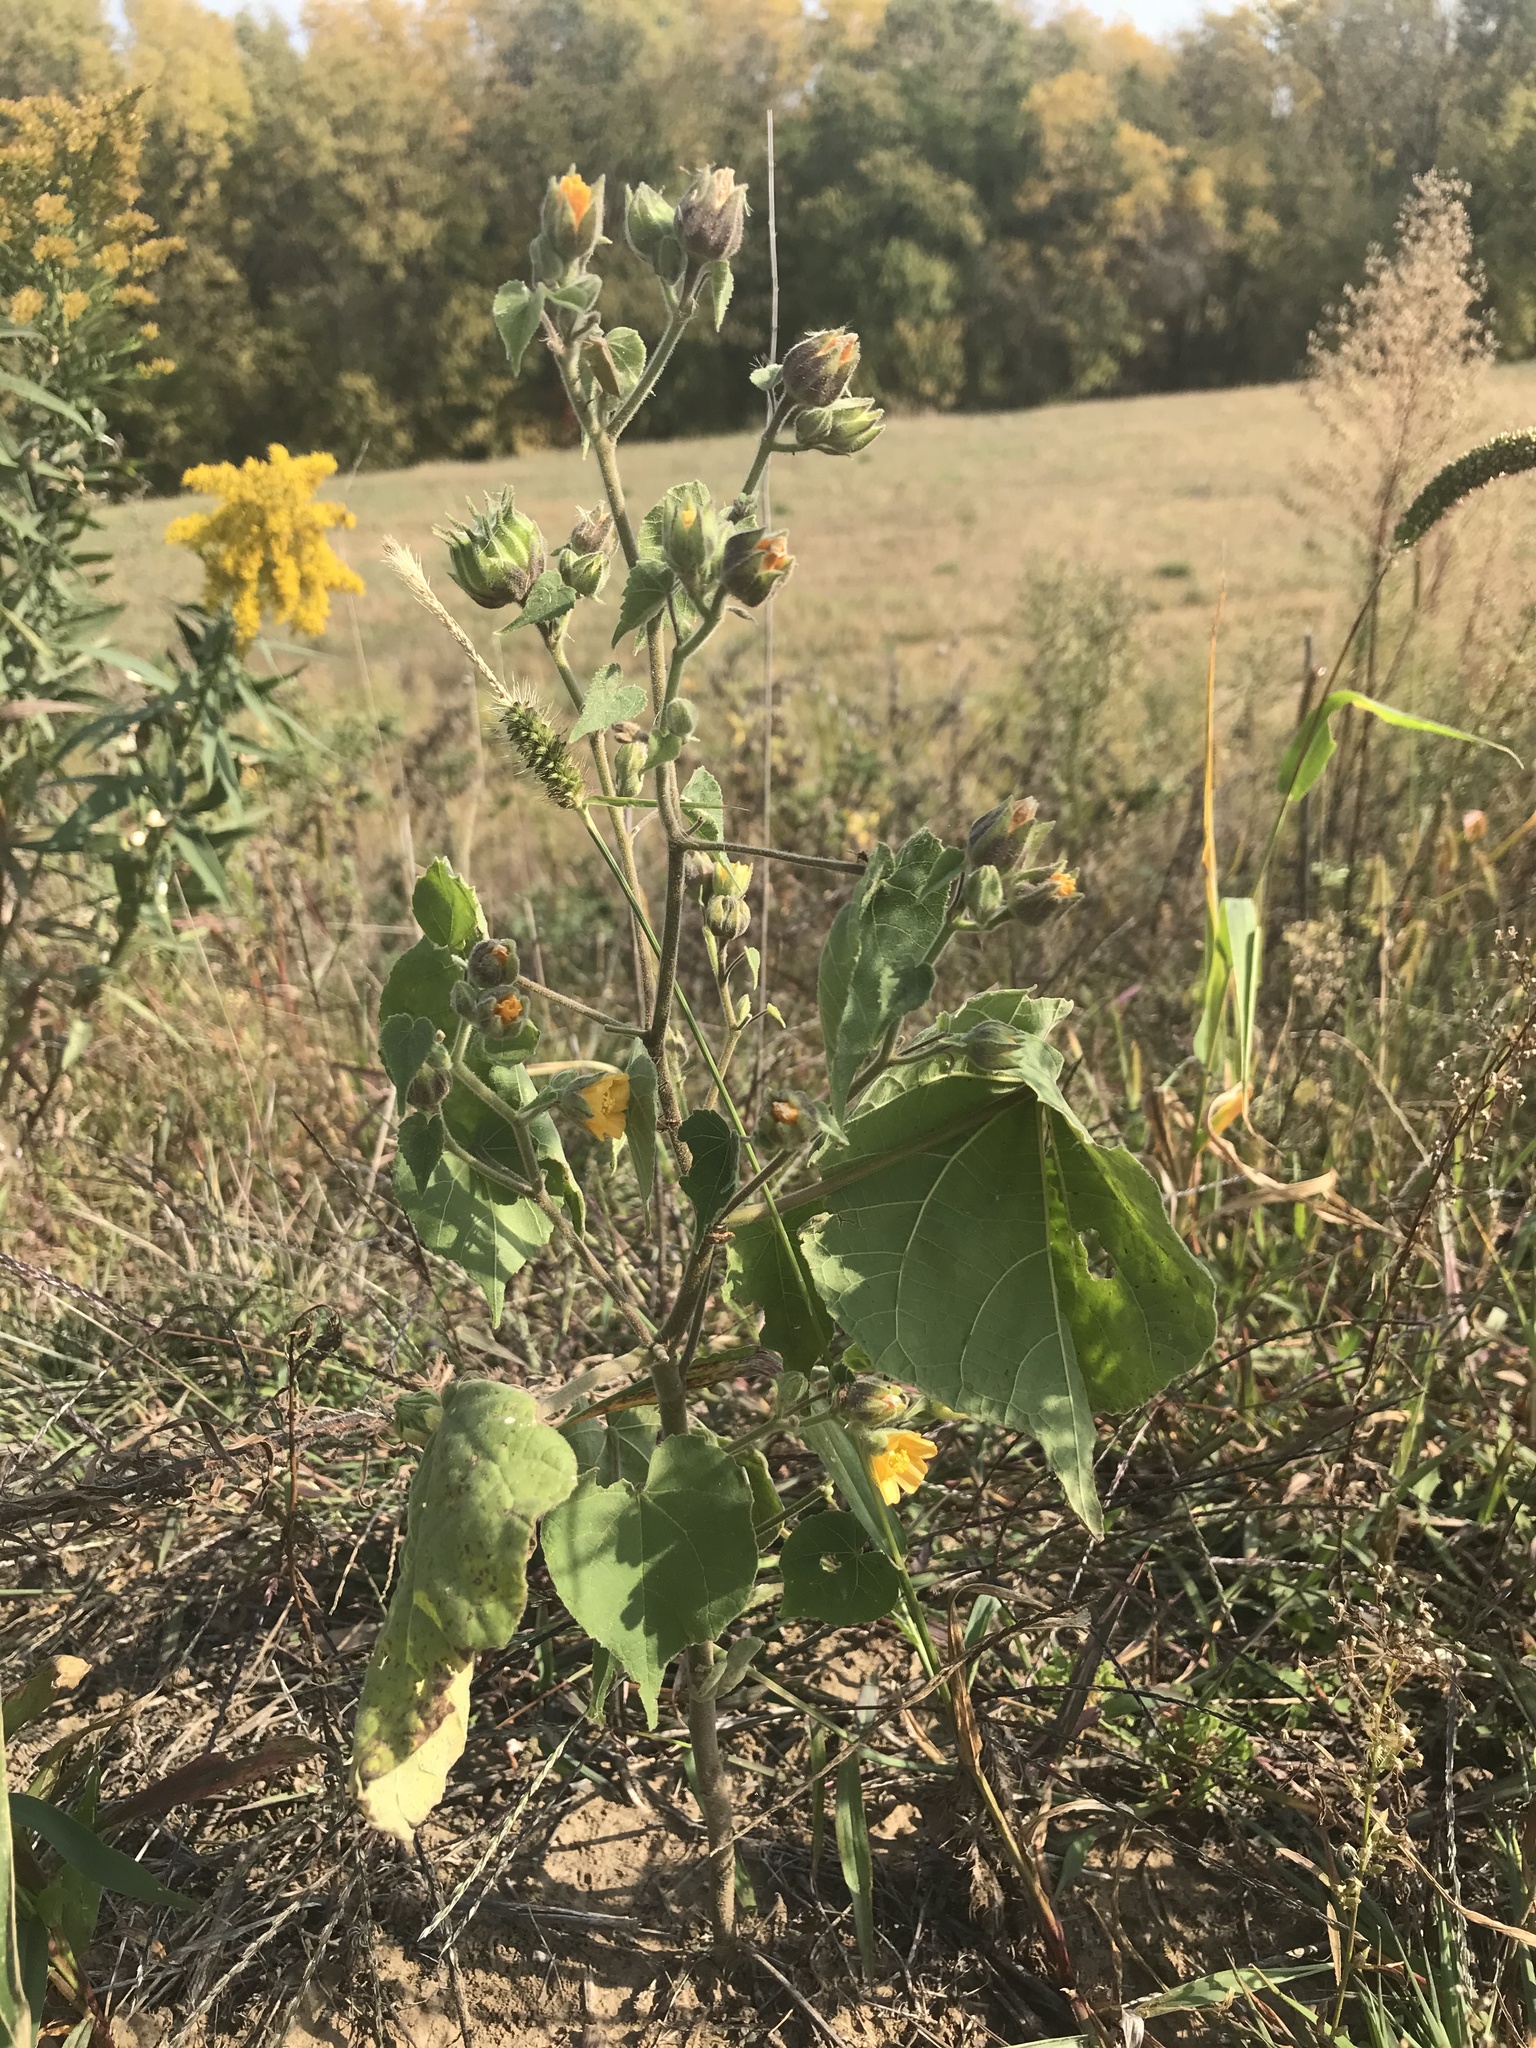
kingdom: Plantae
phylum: Tracheophyta
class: Magnoliopsida
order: Malvales
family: Malvaceae
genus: Abutilon
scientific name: Abutilon theophrasti
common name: Velvetleaf
